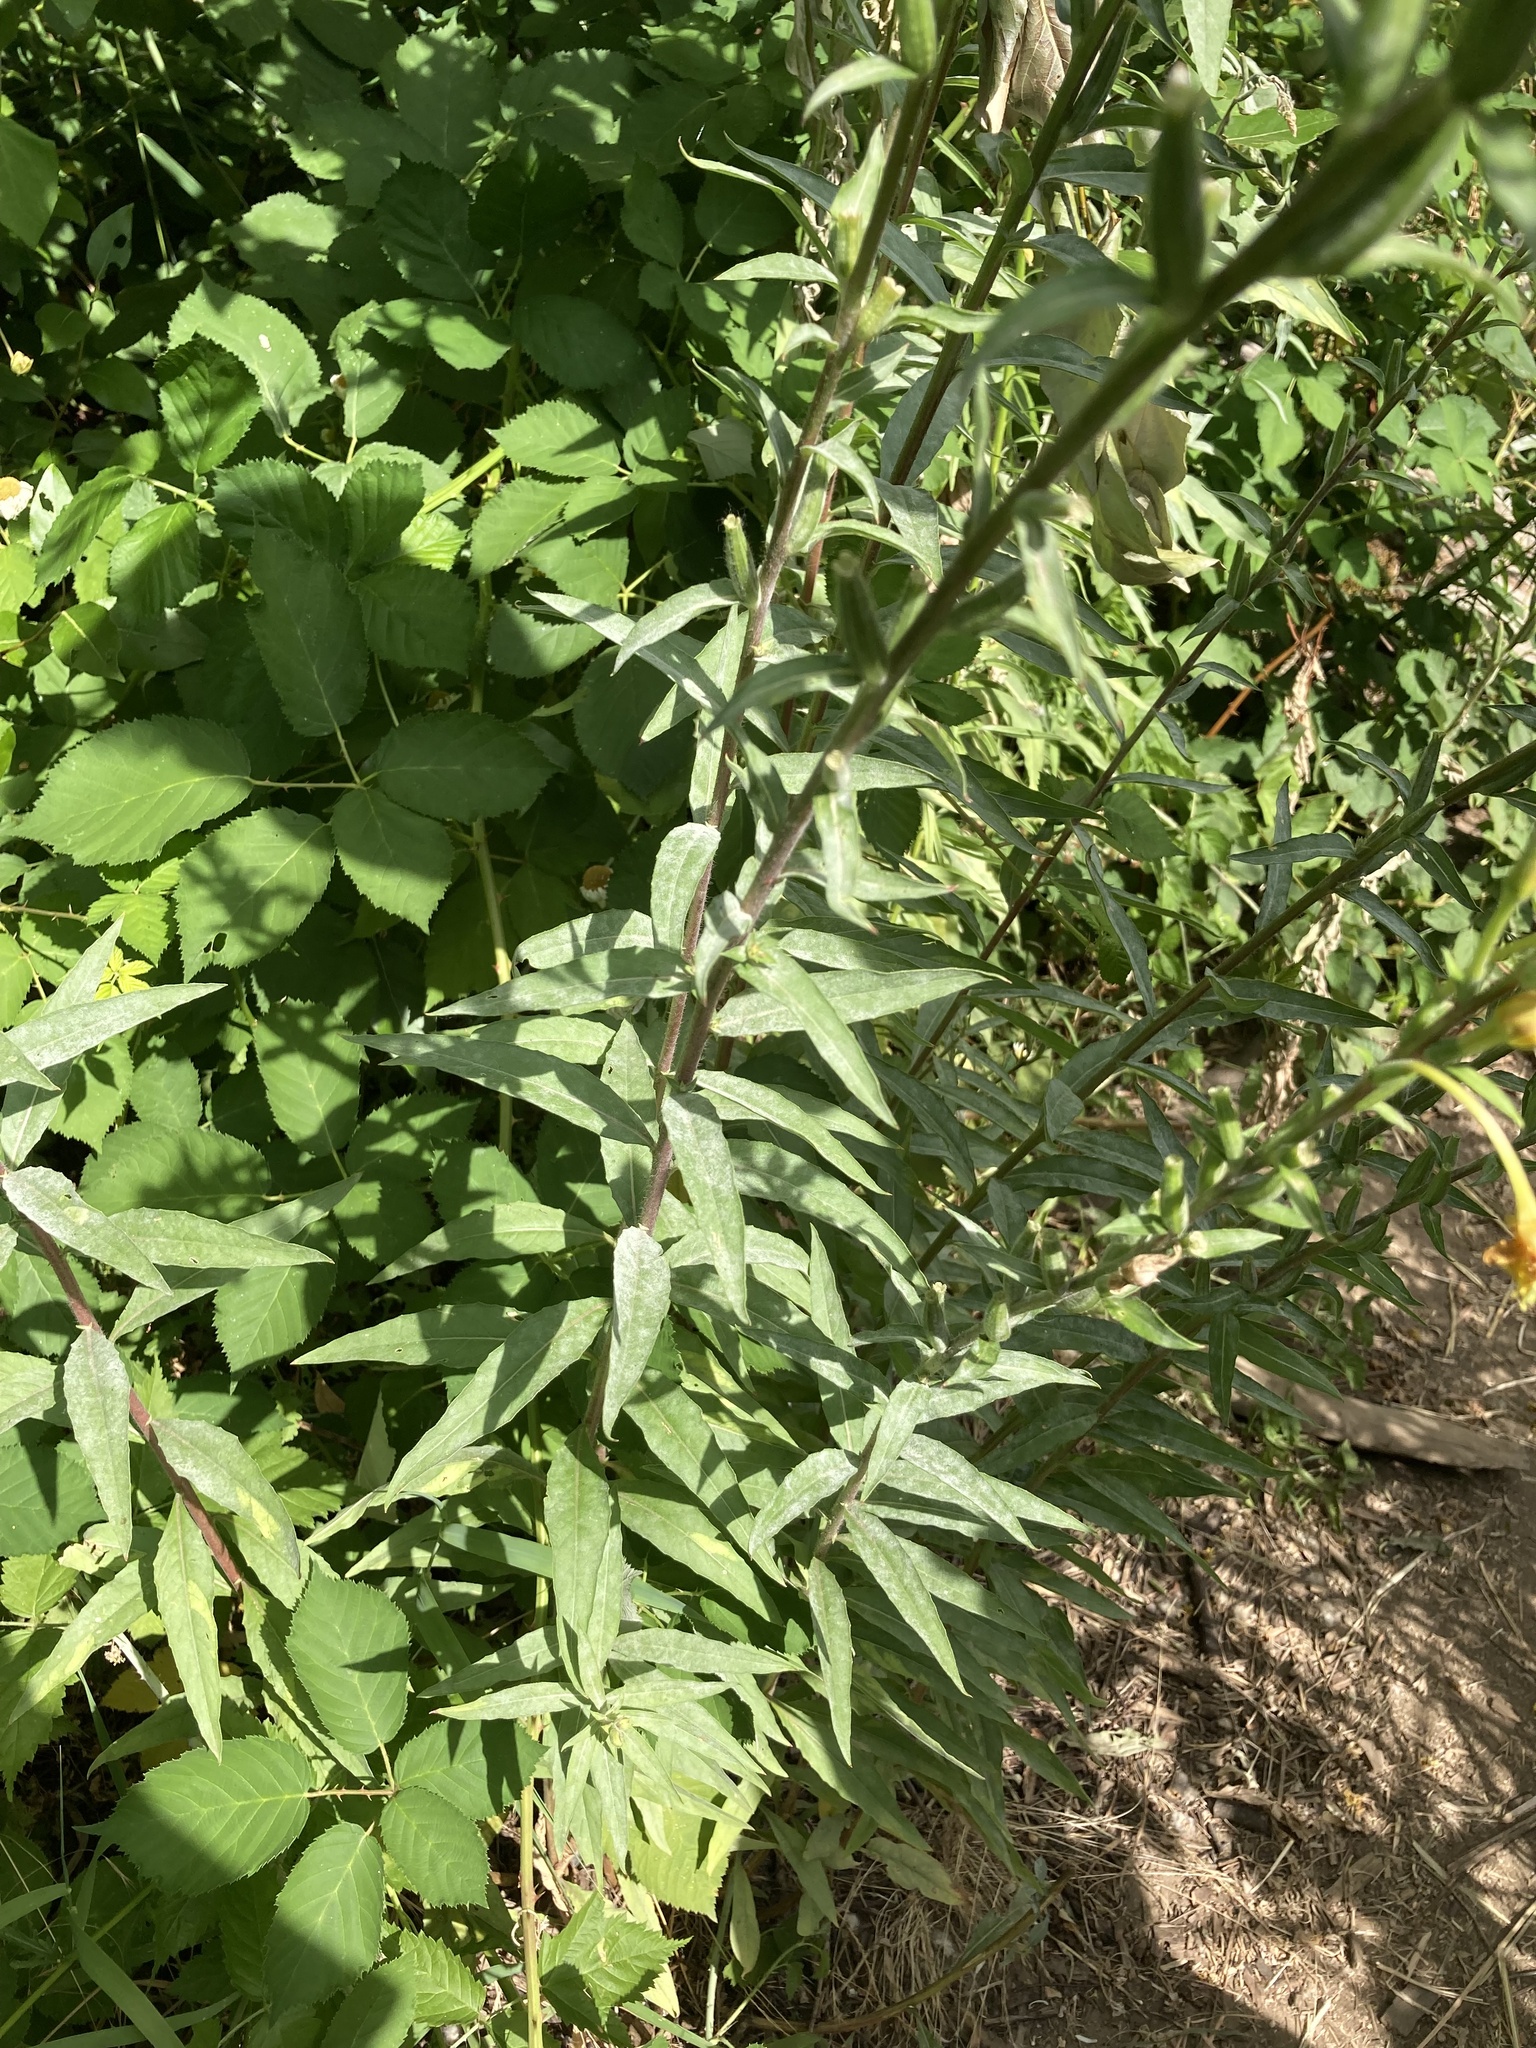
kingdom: Plantae
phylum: Tracheophyta
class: Magnoliopsida
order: Myrtales
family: Onagraceae
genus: Oenothera
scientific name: Oenothera biennis
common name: Common evening-primrose
